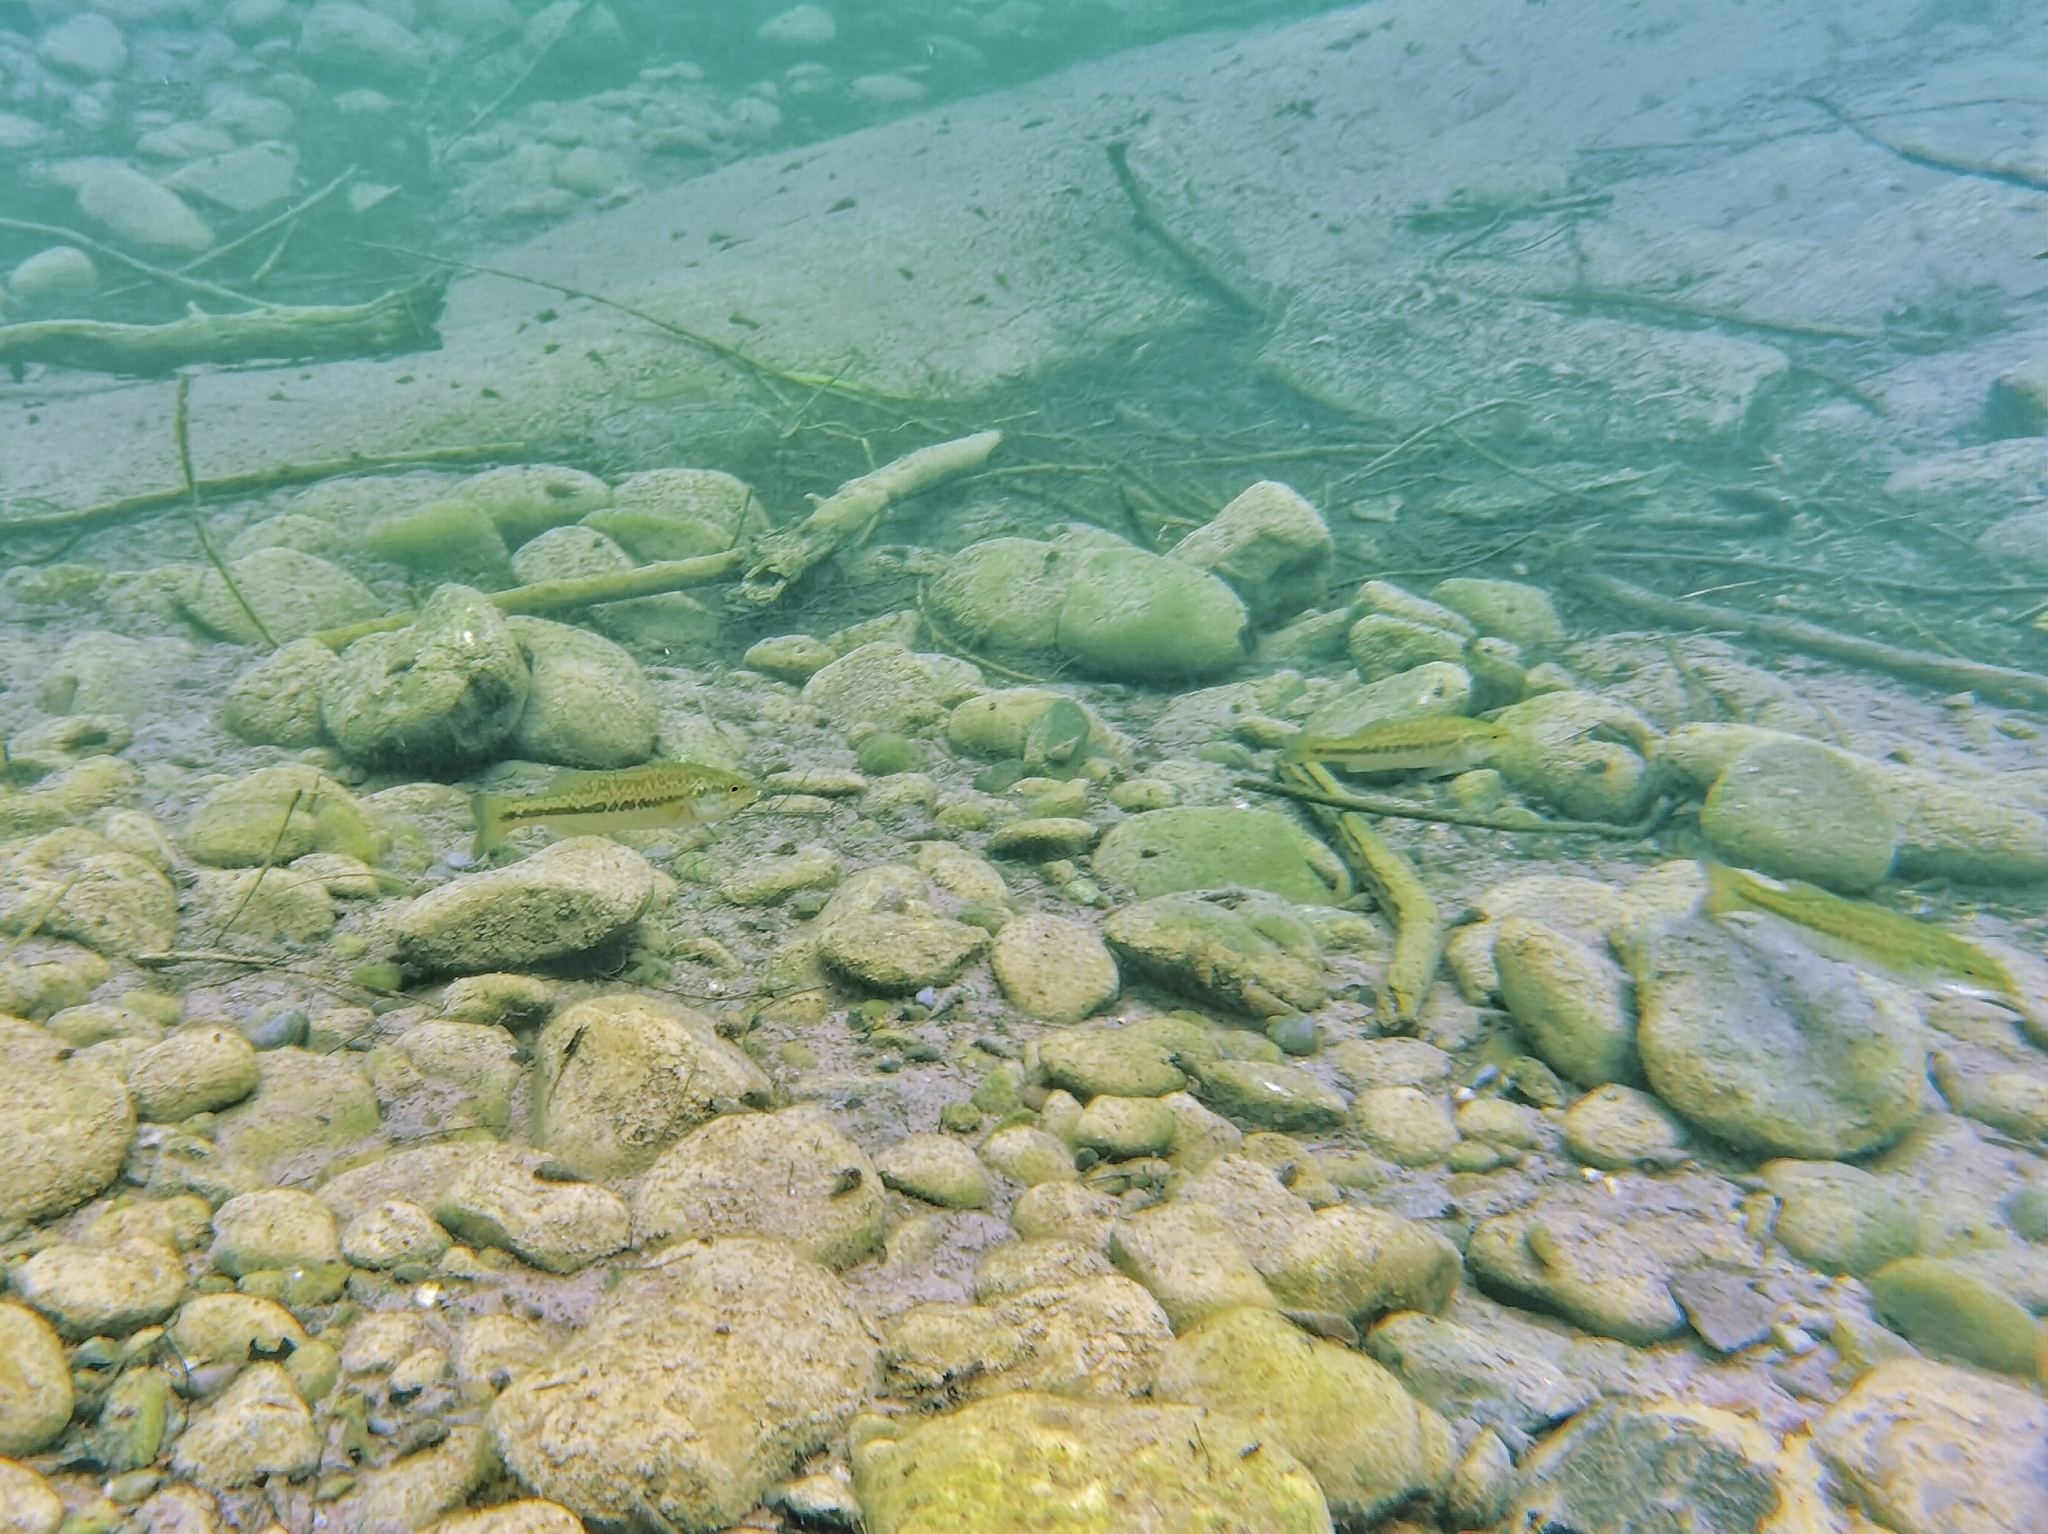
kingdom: Animalia
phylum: Chordata
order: Perciformes
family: Centrarchidae
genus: Micropterus
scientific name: Micropterus
